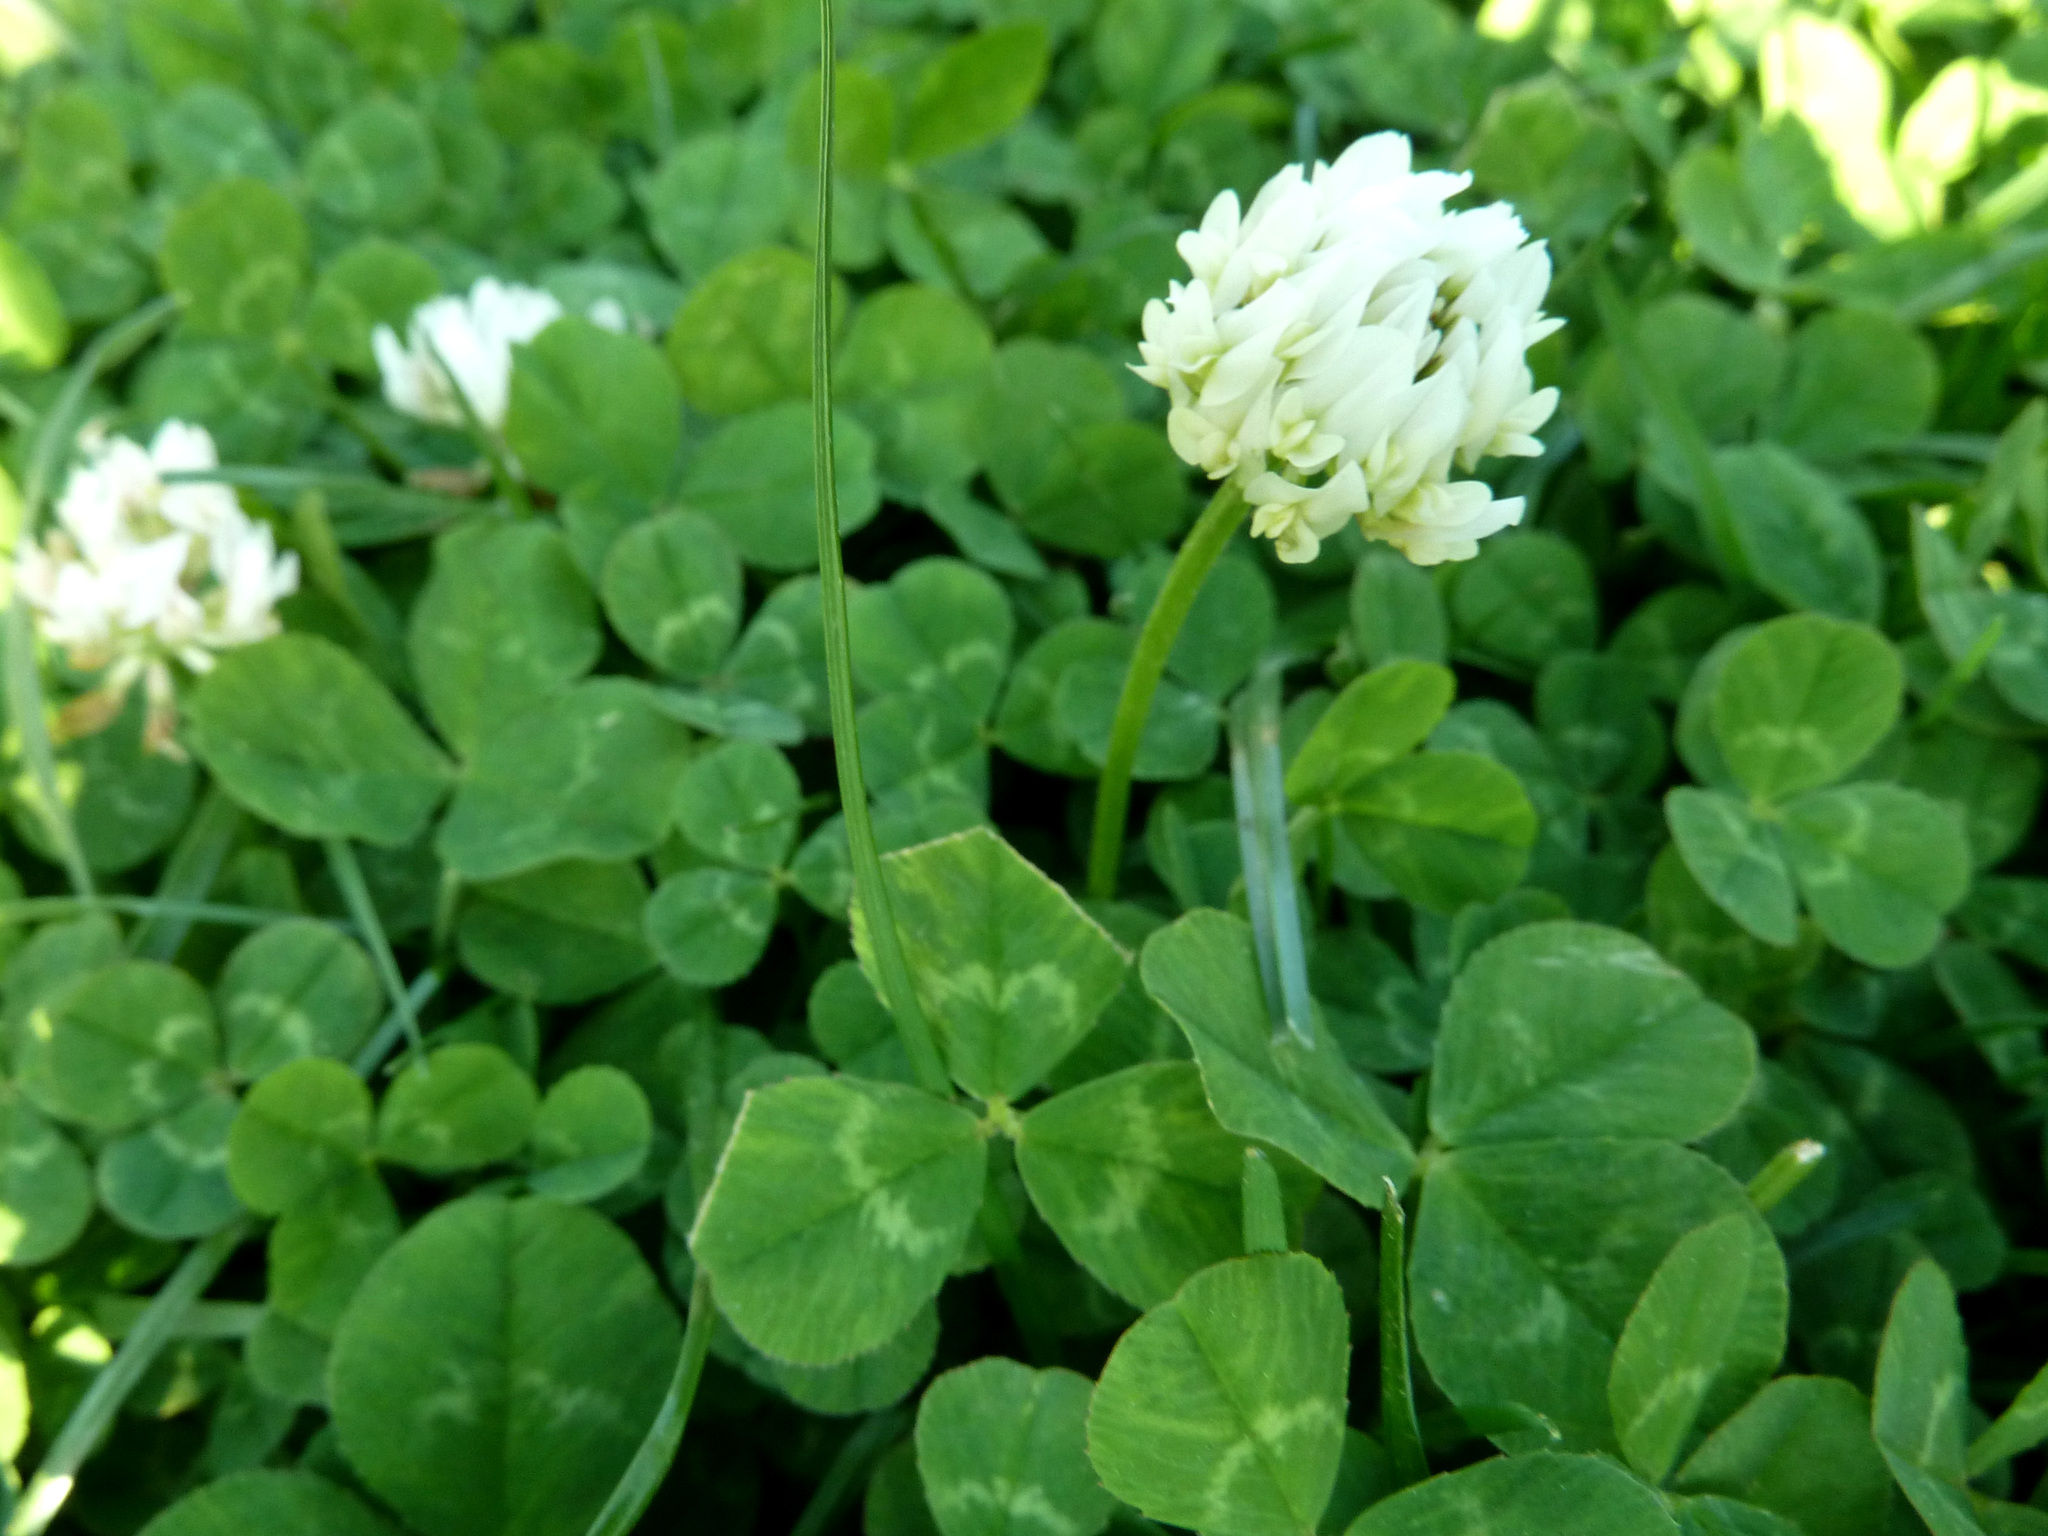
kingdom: Plantae
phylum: Tracheophyta
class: Magnoliopsida
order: Fabales
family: Fabaceae
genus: Trifolium
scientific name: Trifolium repens
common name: White clover
